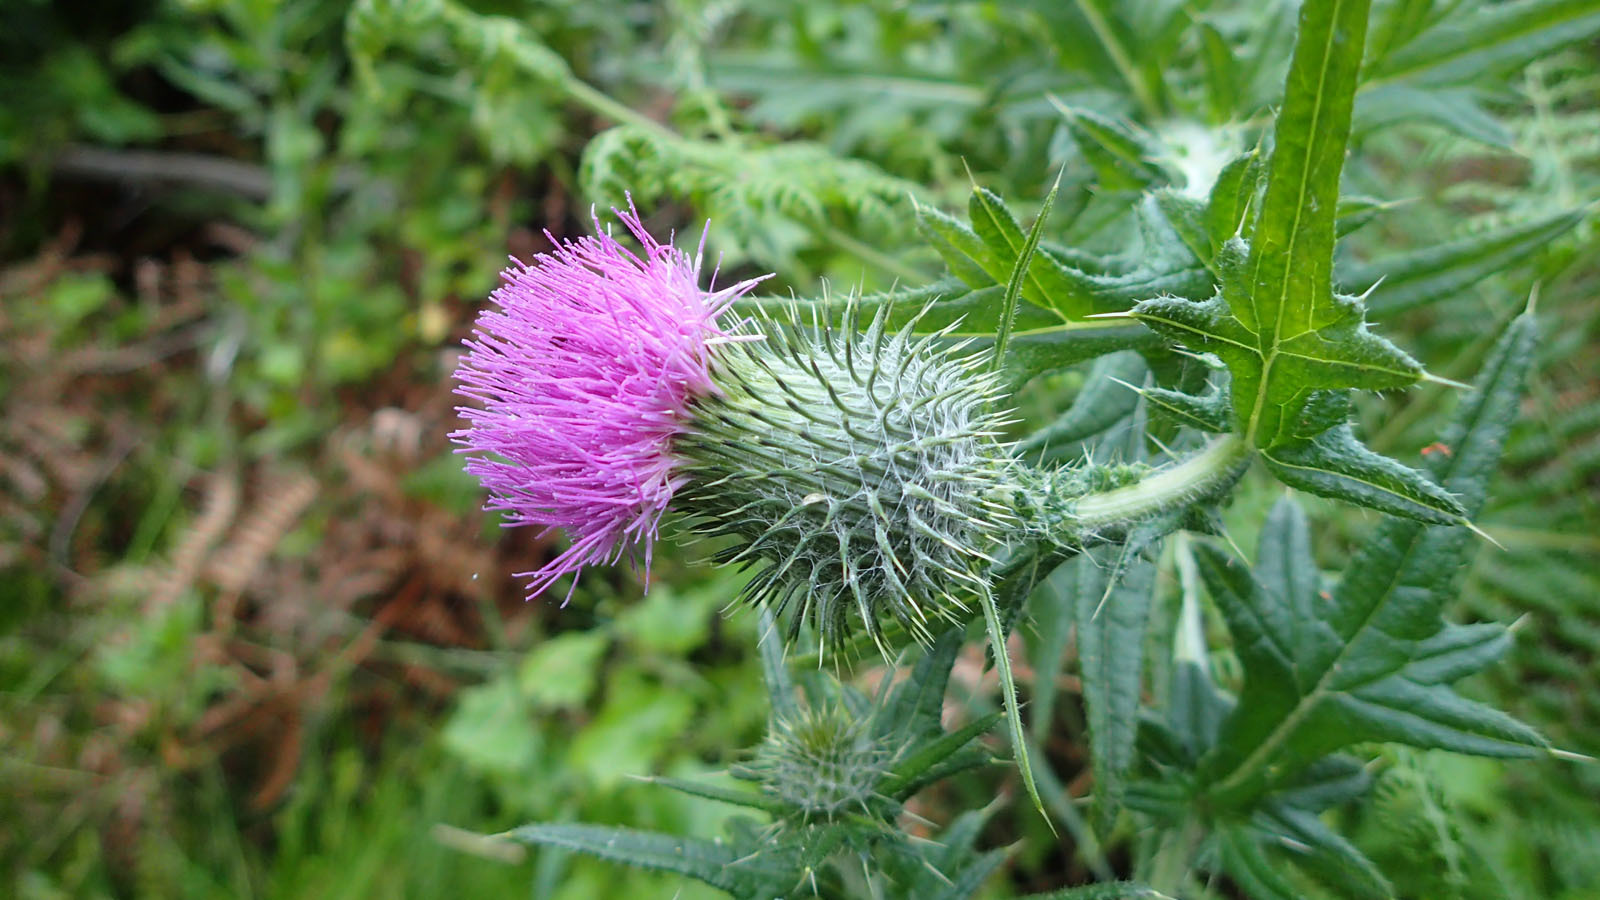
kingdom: Plantae
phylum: Tracheophyta
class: Magnoliopsida
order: Asterales
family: Asteraceae
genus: Cirsium
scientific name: Cirsium vulgare
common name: Bull thistle
